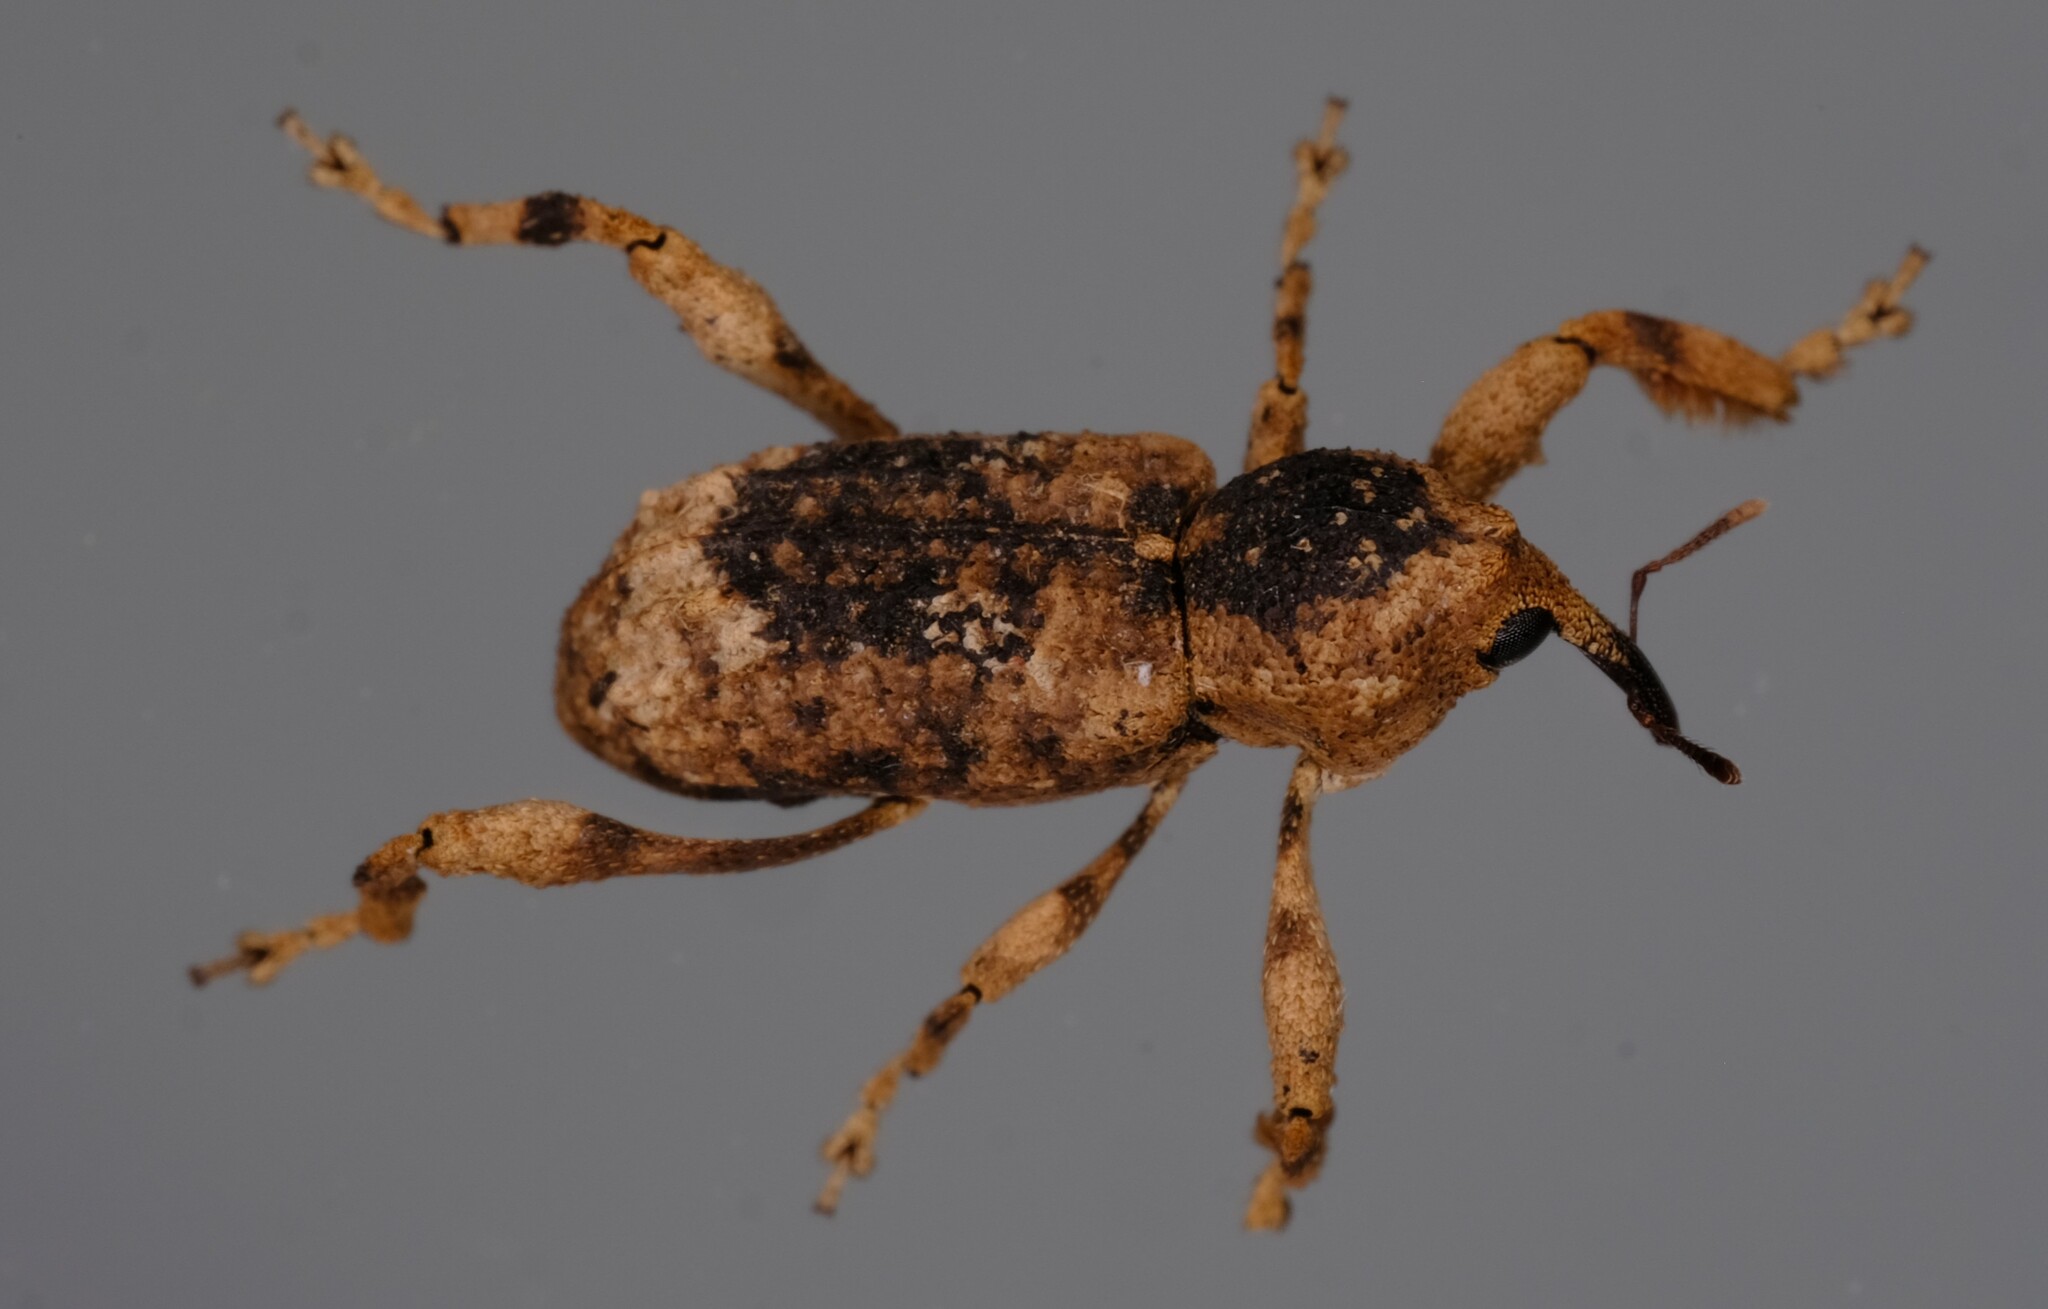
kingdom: Animalia
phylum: Arthropoda
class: Insecta
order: Coleoptera
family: Curculionidae
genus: Camptorhinus
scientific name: Camptorhinus dorsalis
